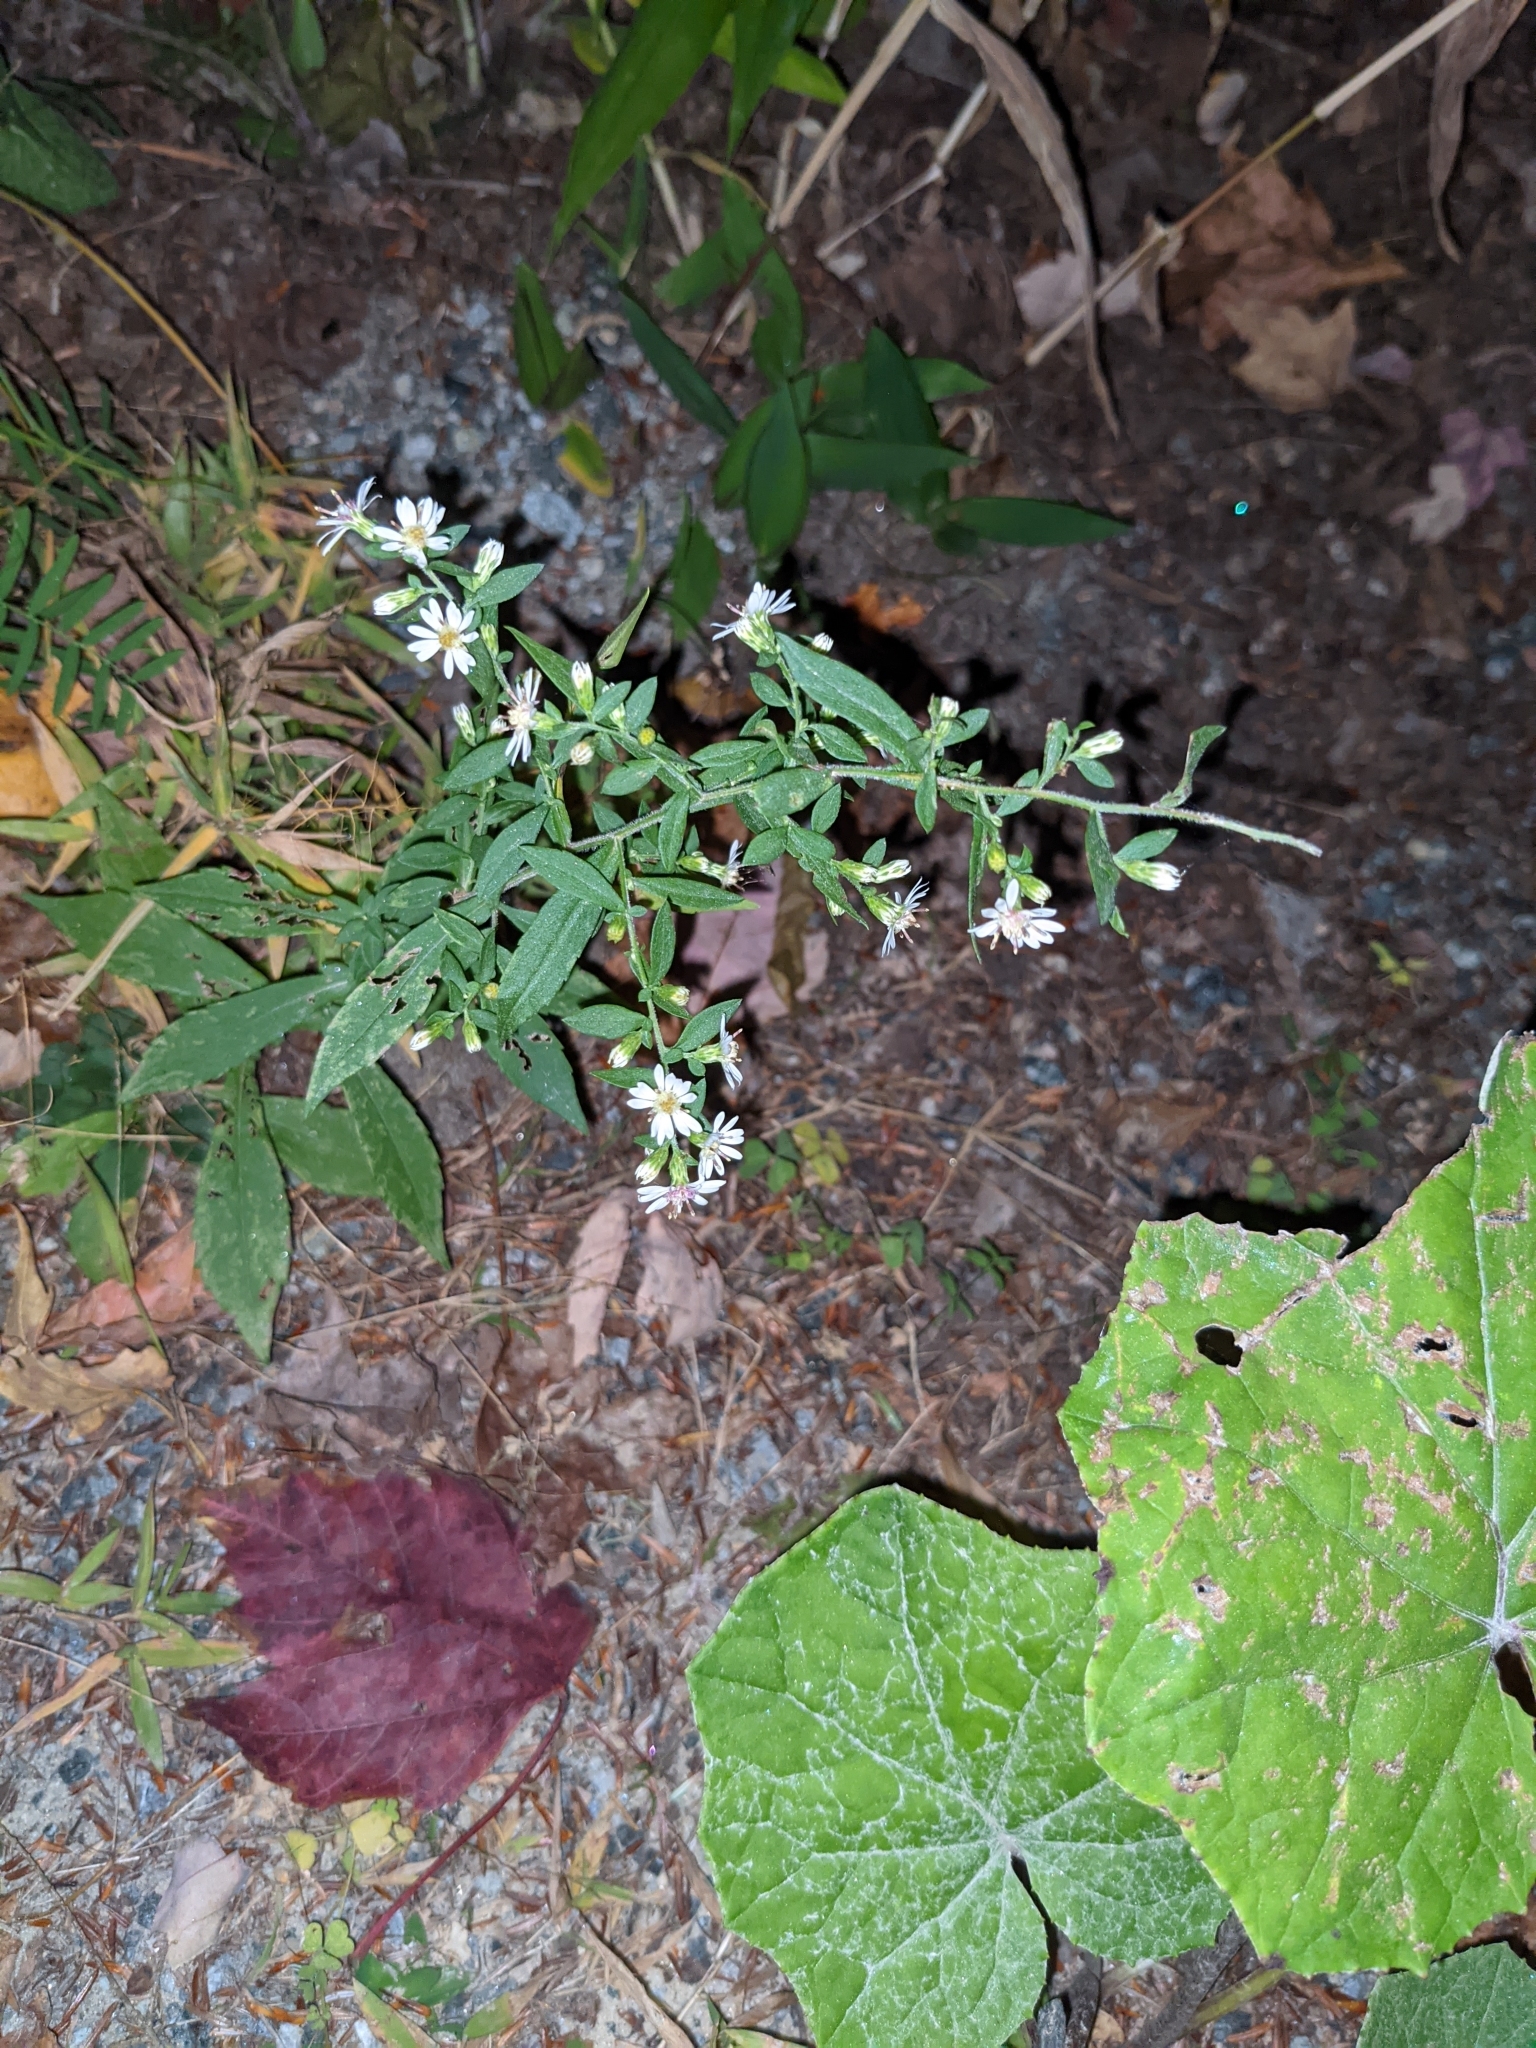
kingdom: Plantae
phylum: Tracheophyta
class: Magnoliopsida
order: Asterales
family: Asteraceae
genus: Symphyotrichum
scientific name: Symphyotrichum lateriflorum
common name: Calico aster
